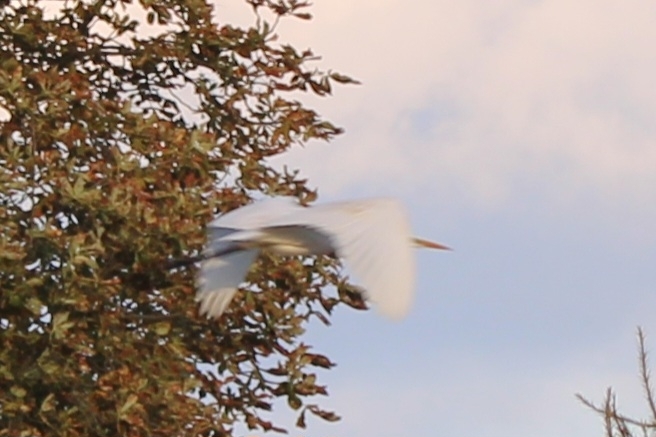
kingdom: Animalia
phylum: Chordata
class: Aves
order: Pelecaniformes
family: Ardeidae
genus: Ardea
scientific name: Ardea alba
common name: Great egret
